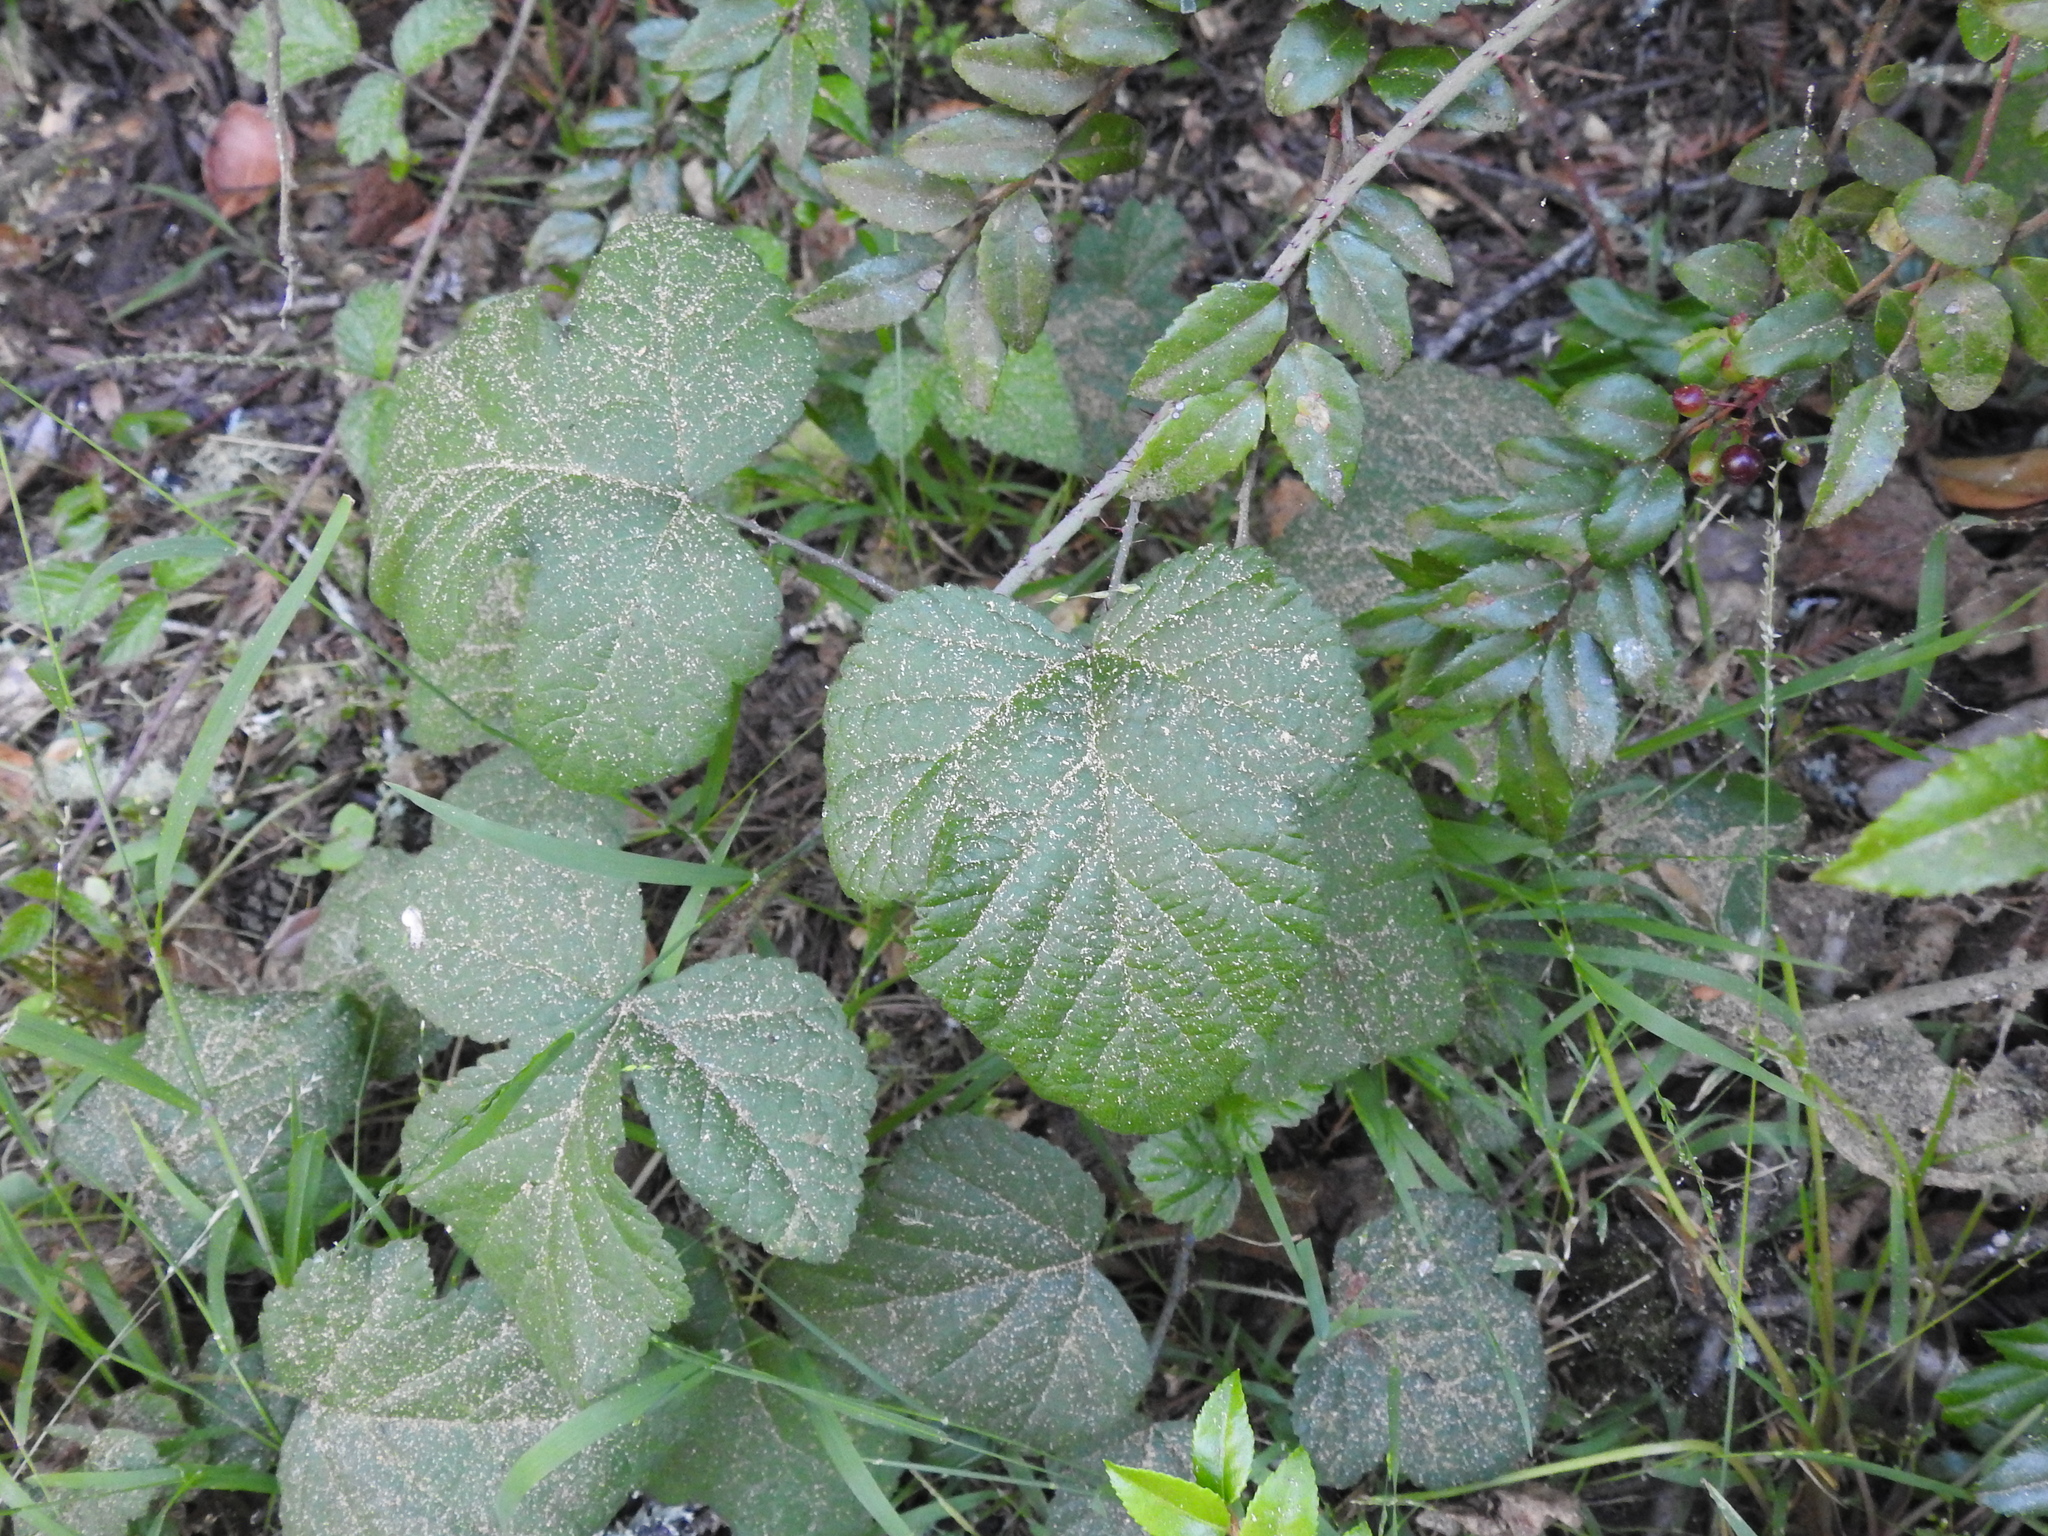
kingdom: Plantae
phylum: Tracheophyta
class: Magnoliopsida
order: Rosales
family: Rosaceae
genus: Rubus
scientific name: Rubus ursinus
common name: Pacific blackberry
